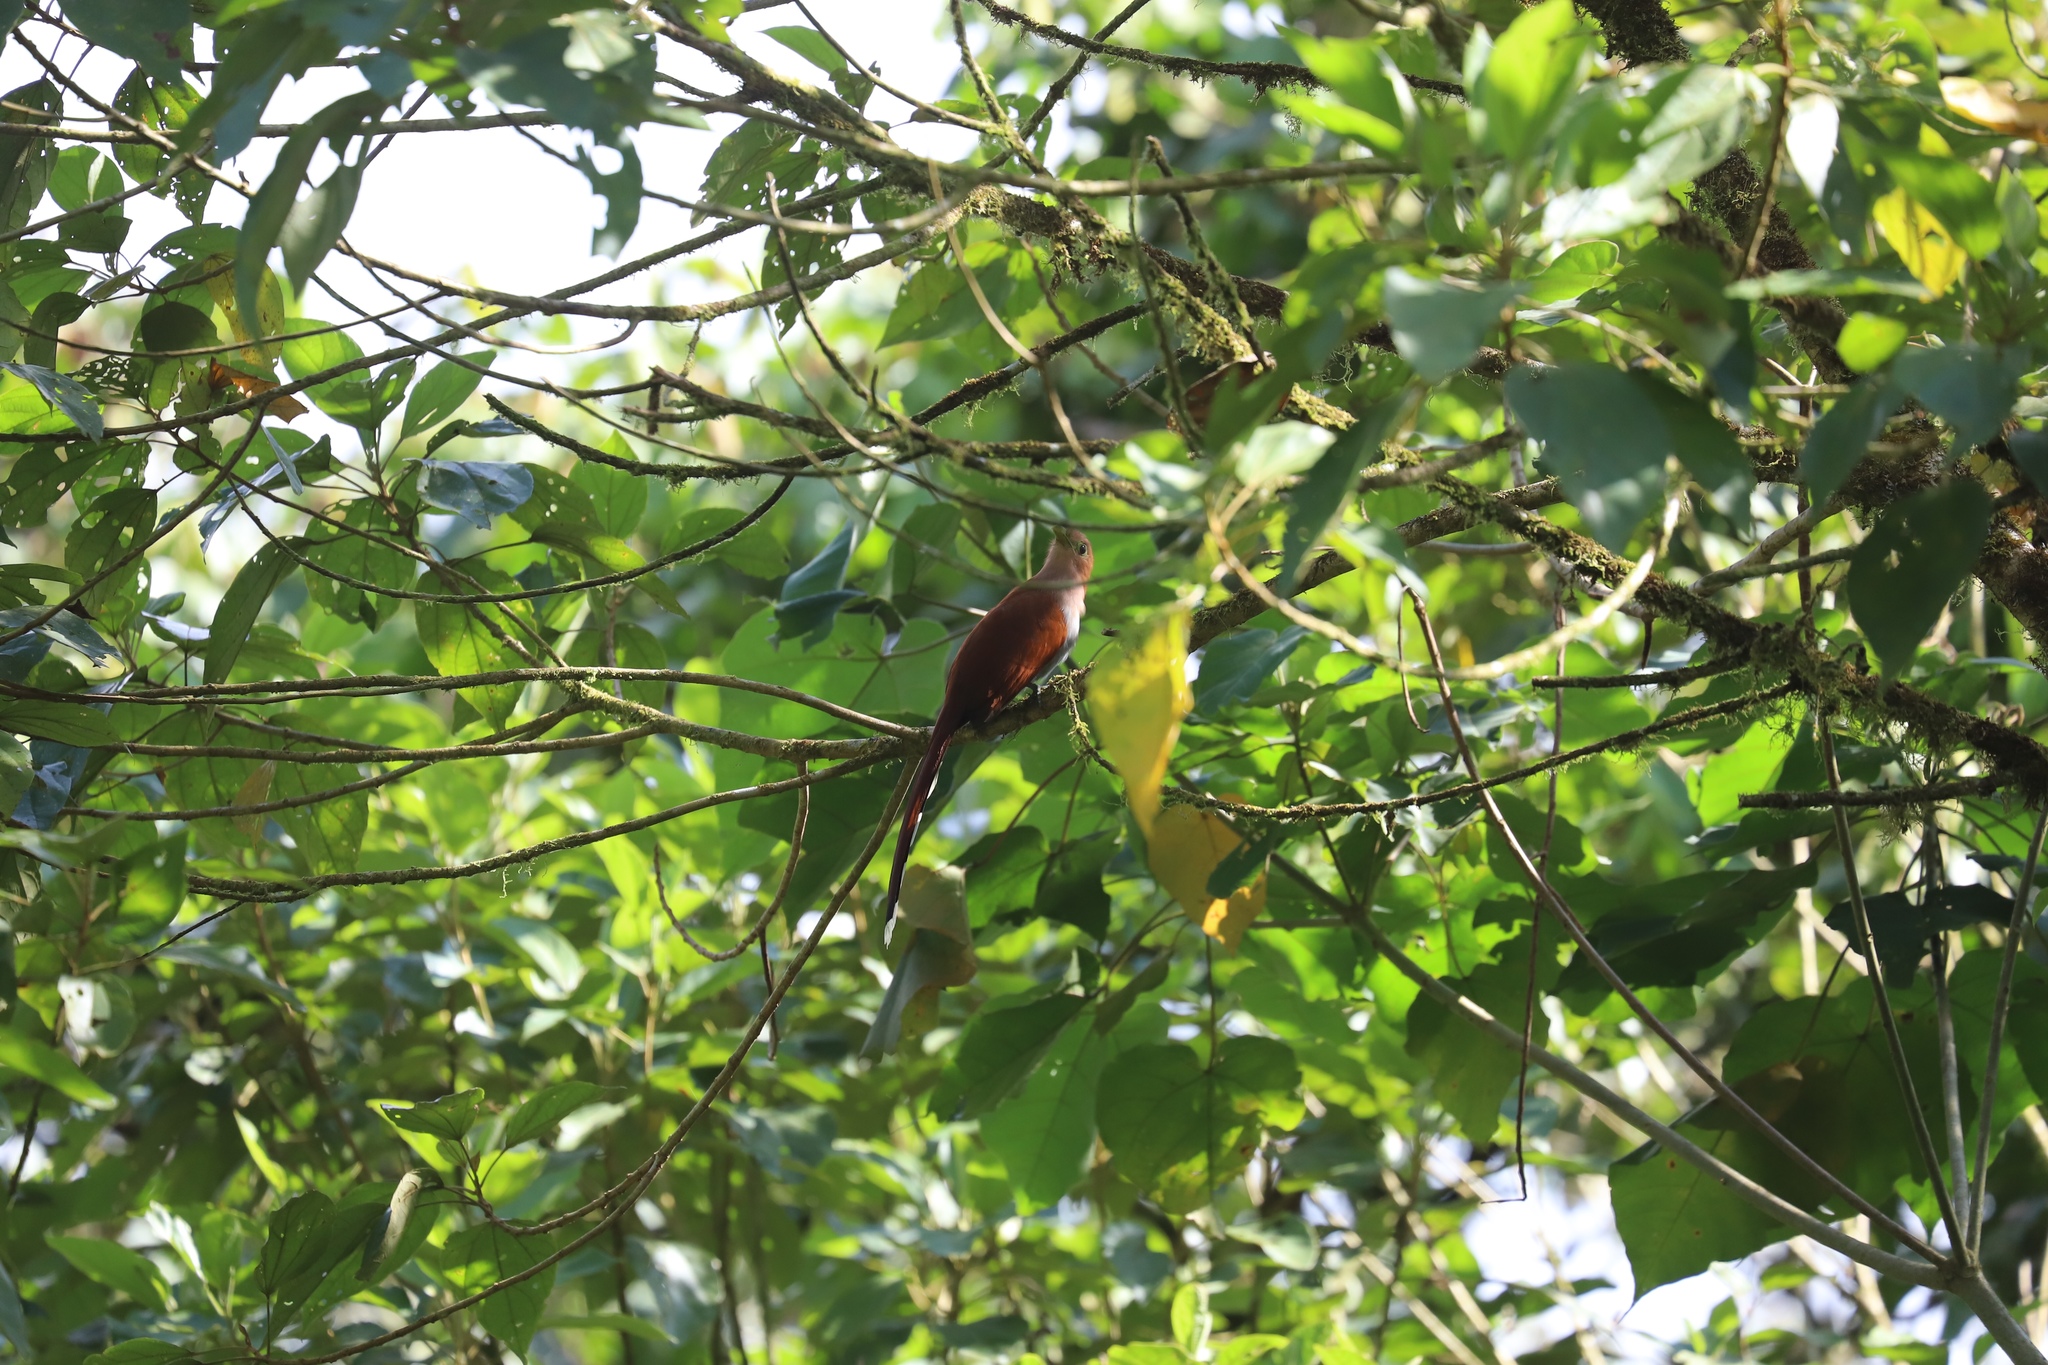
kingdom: Animalia
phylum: Chordata
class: Aves
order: Cuculiformes
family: Cuculidae
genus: Piaya
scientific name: Piaya cayana
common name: Squirrel cuckoo
